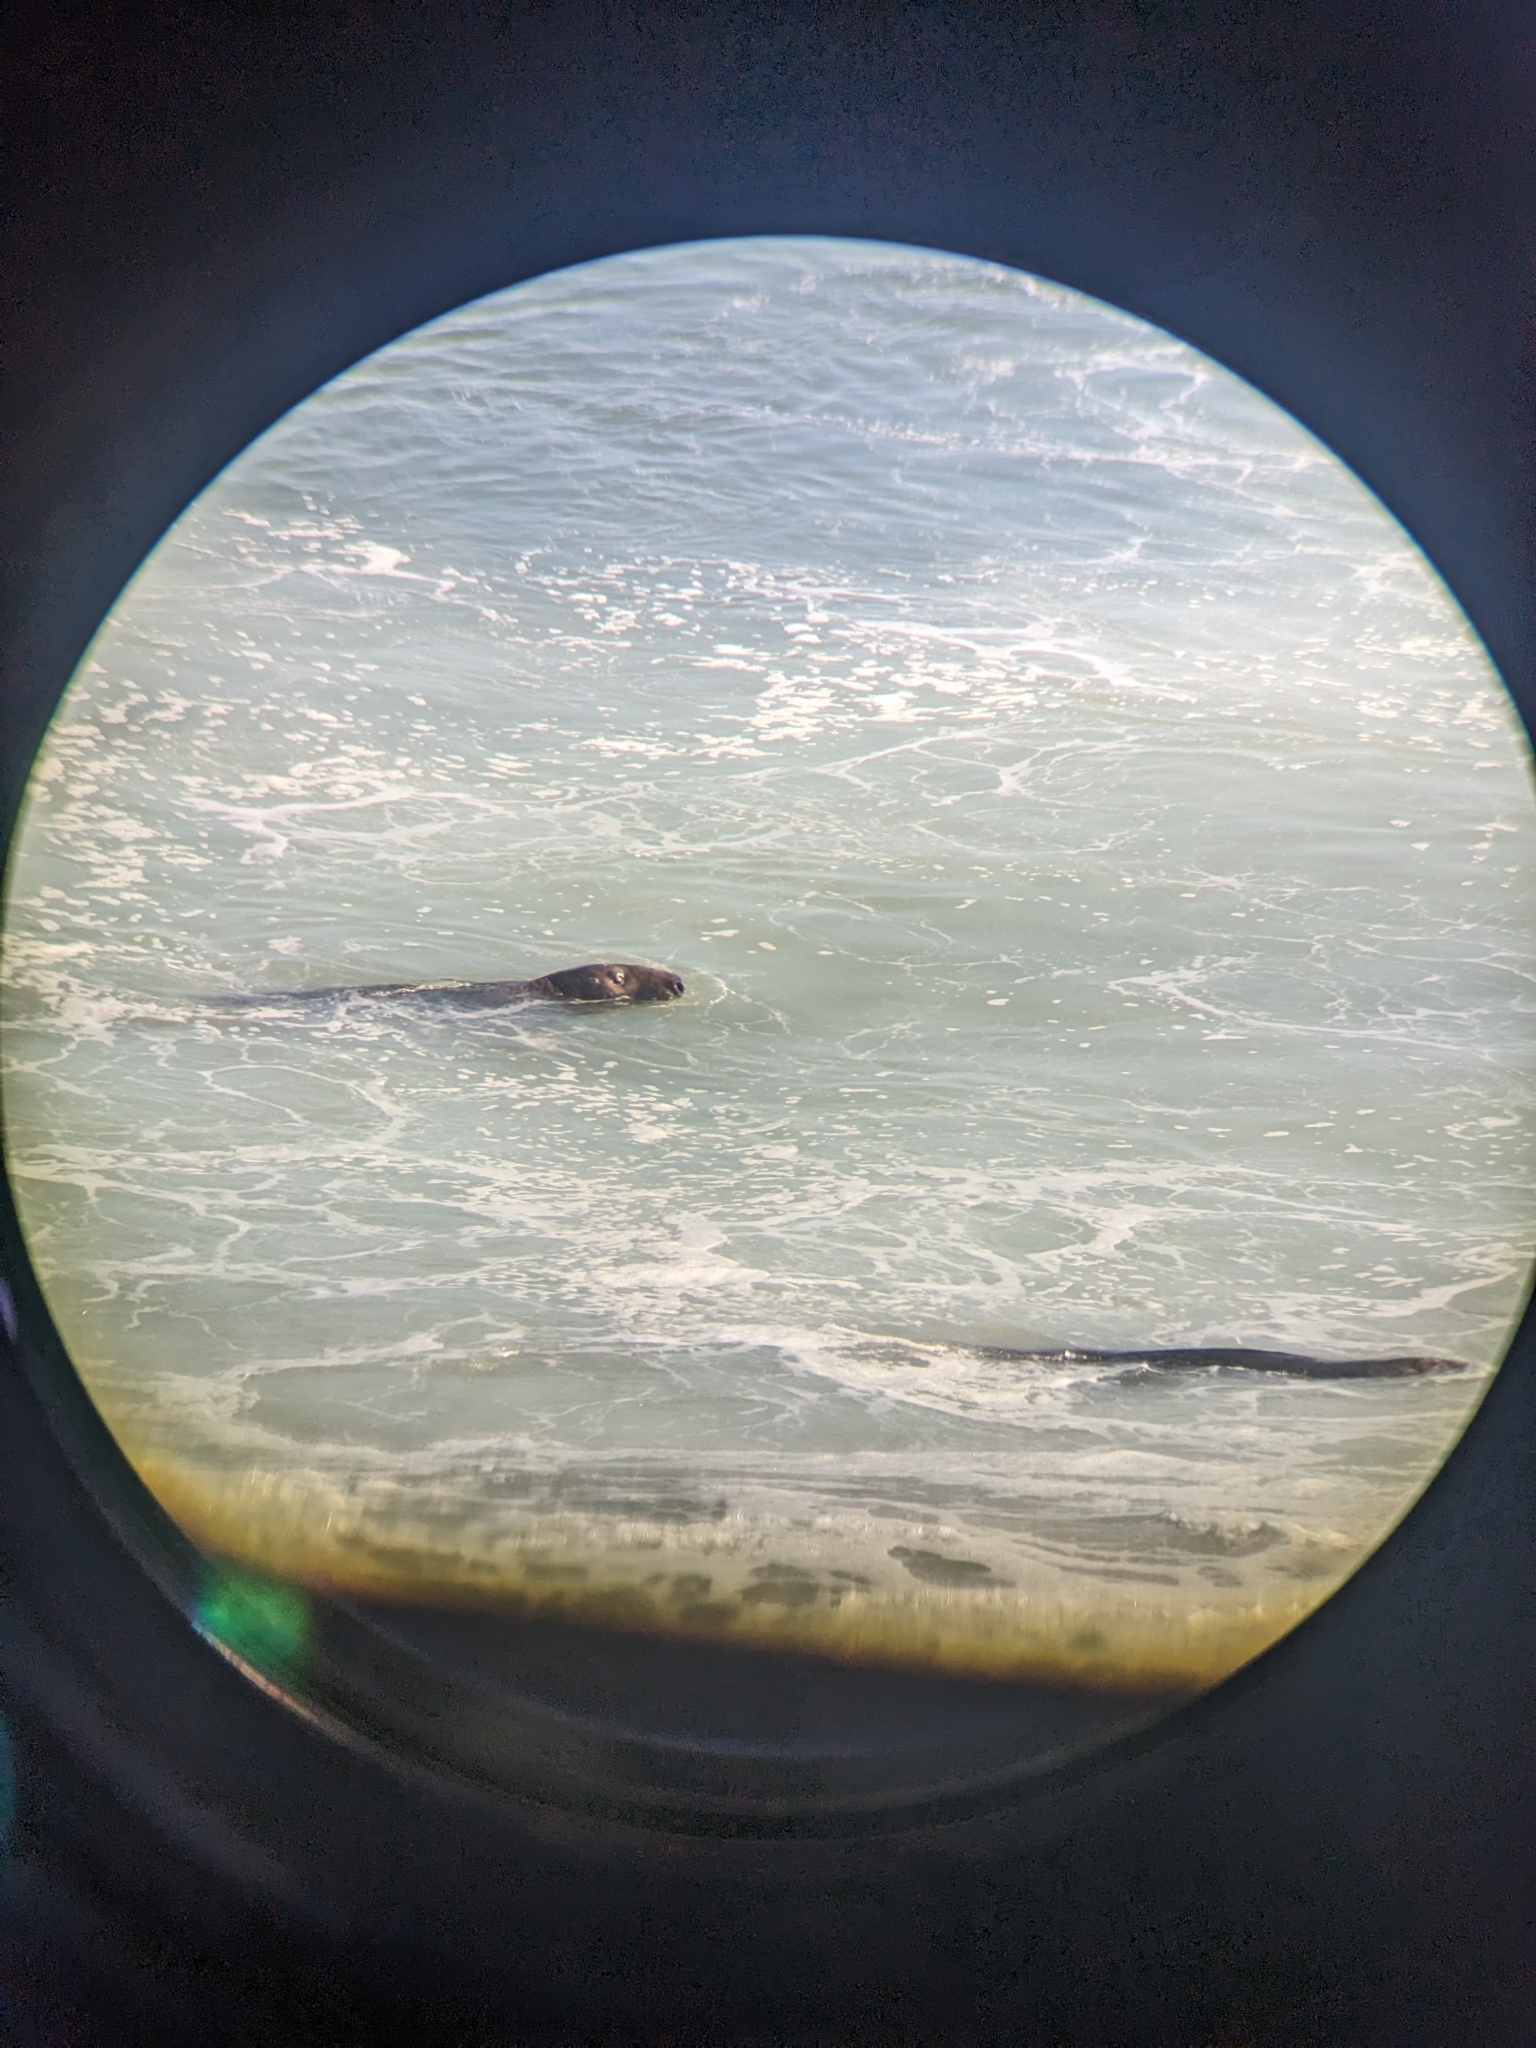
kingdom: Animalia
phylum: Chordata
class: Mammalia
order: Carnivora
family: Phocidae
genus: Halichoerus
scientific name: Halichoerus grypus
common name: Grey seal
